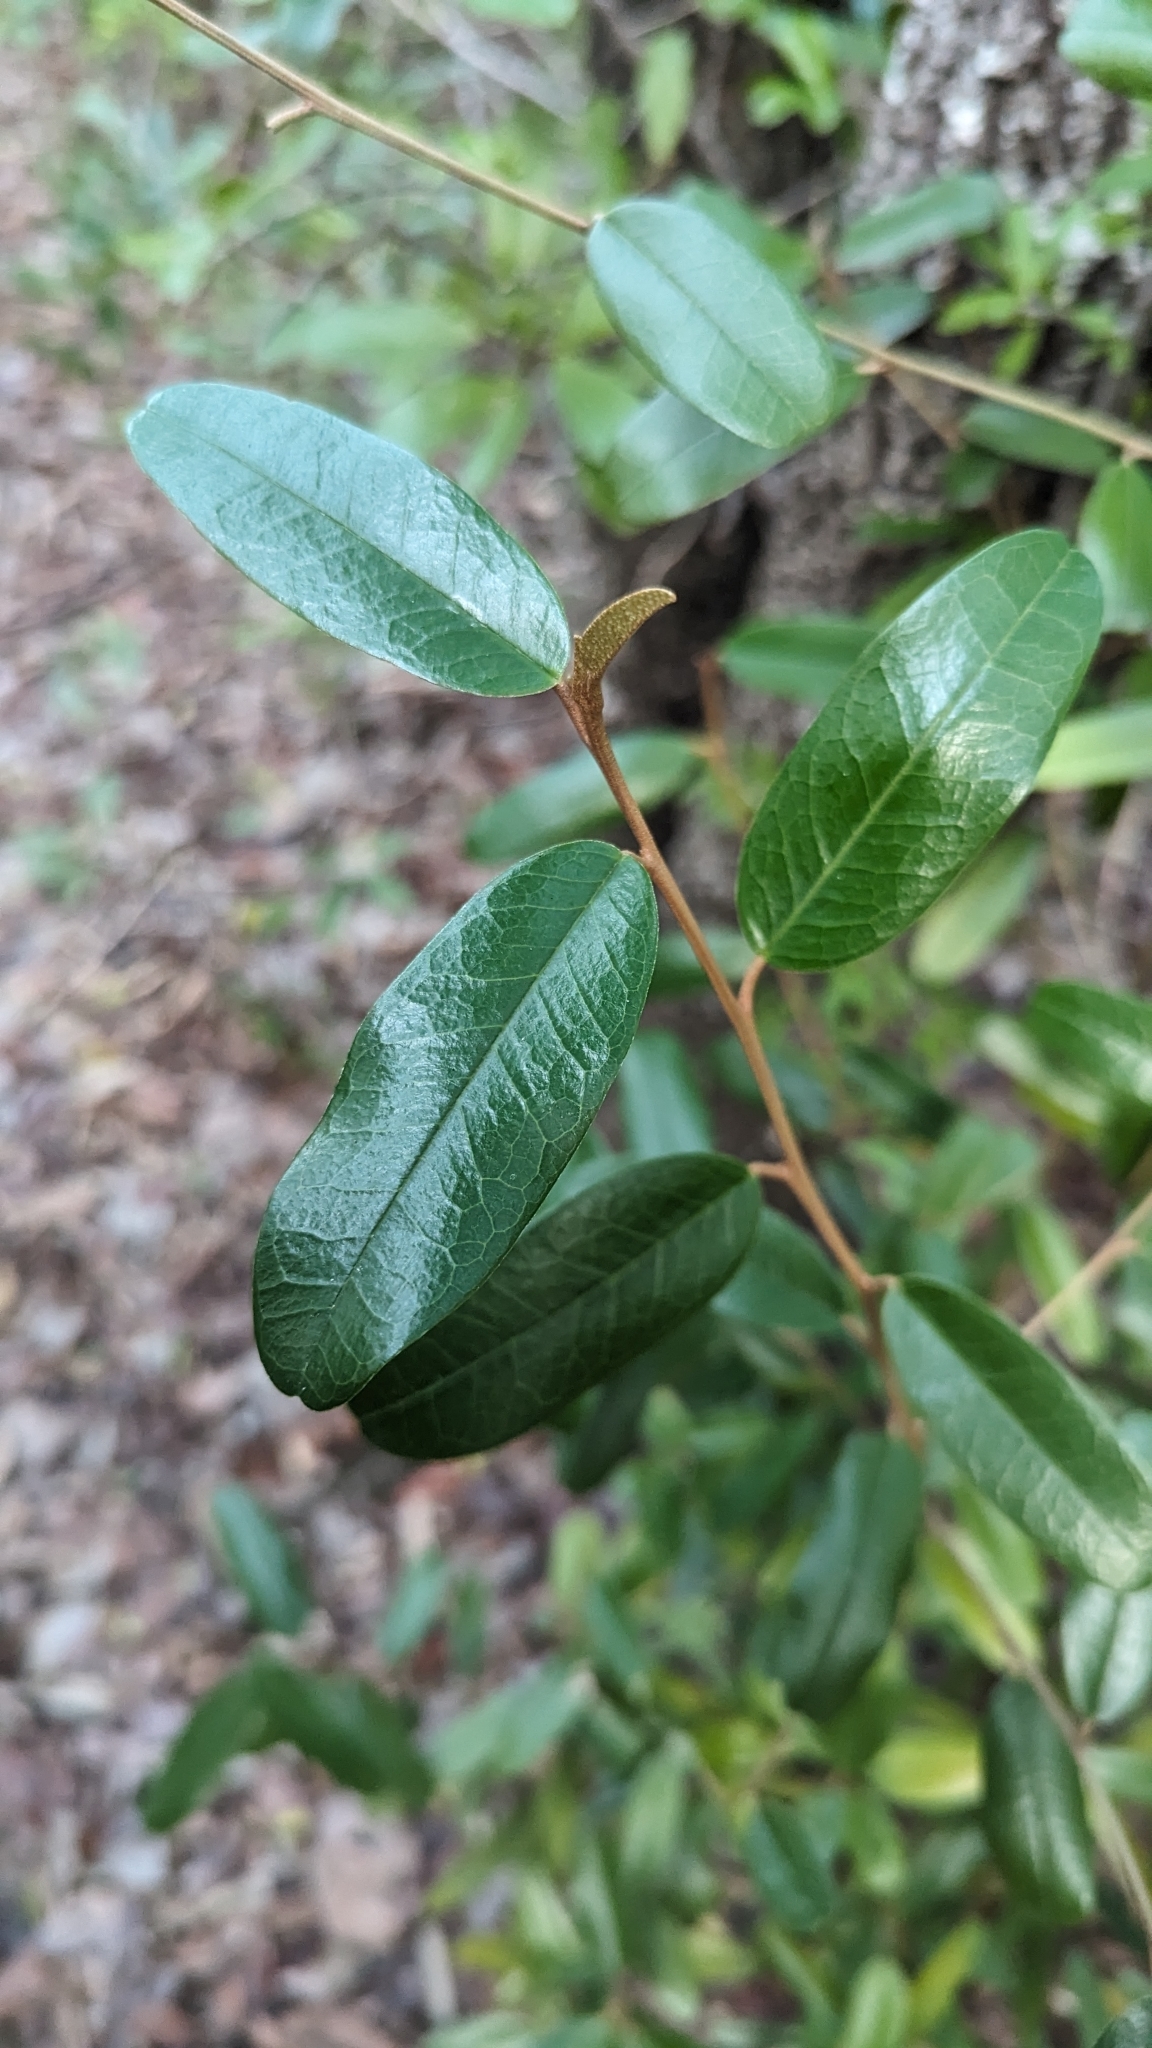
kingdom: Plantae
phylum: Tracheophyta
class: Magnoliopsida
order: Brassicales
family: Capparaceae
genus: Quadrella
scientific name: Quadrella cynophallophora
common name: Black willow
